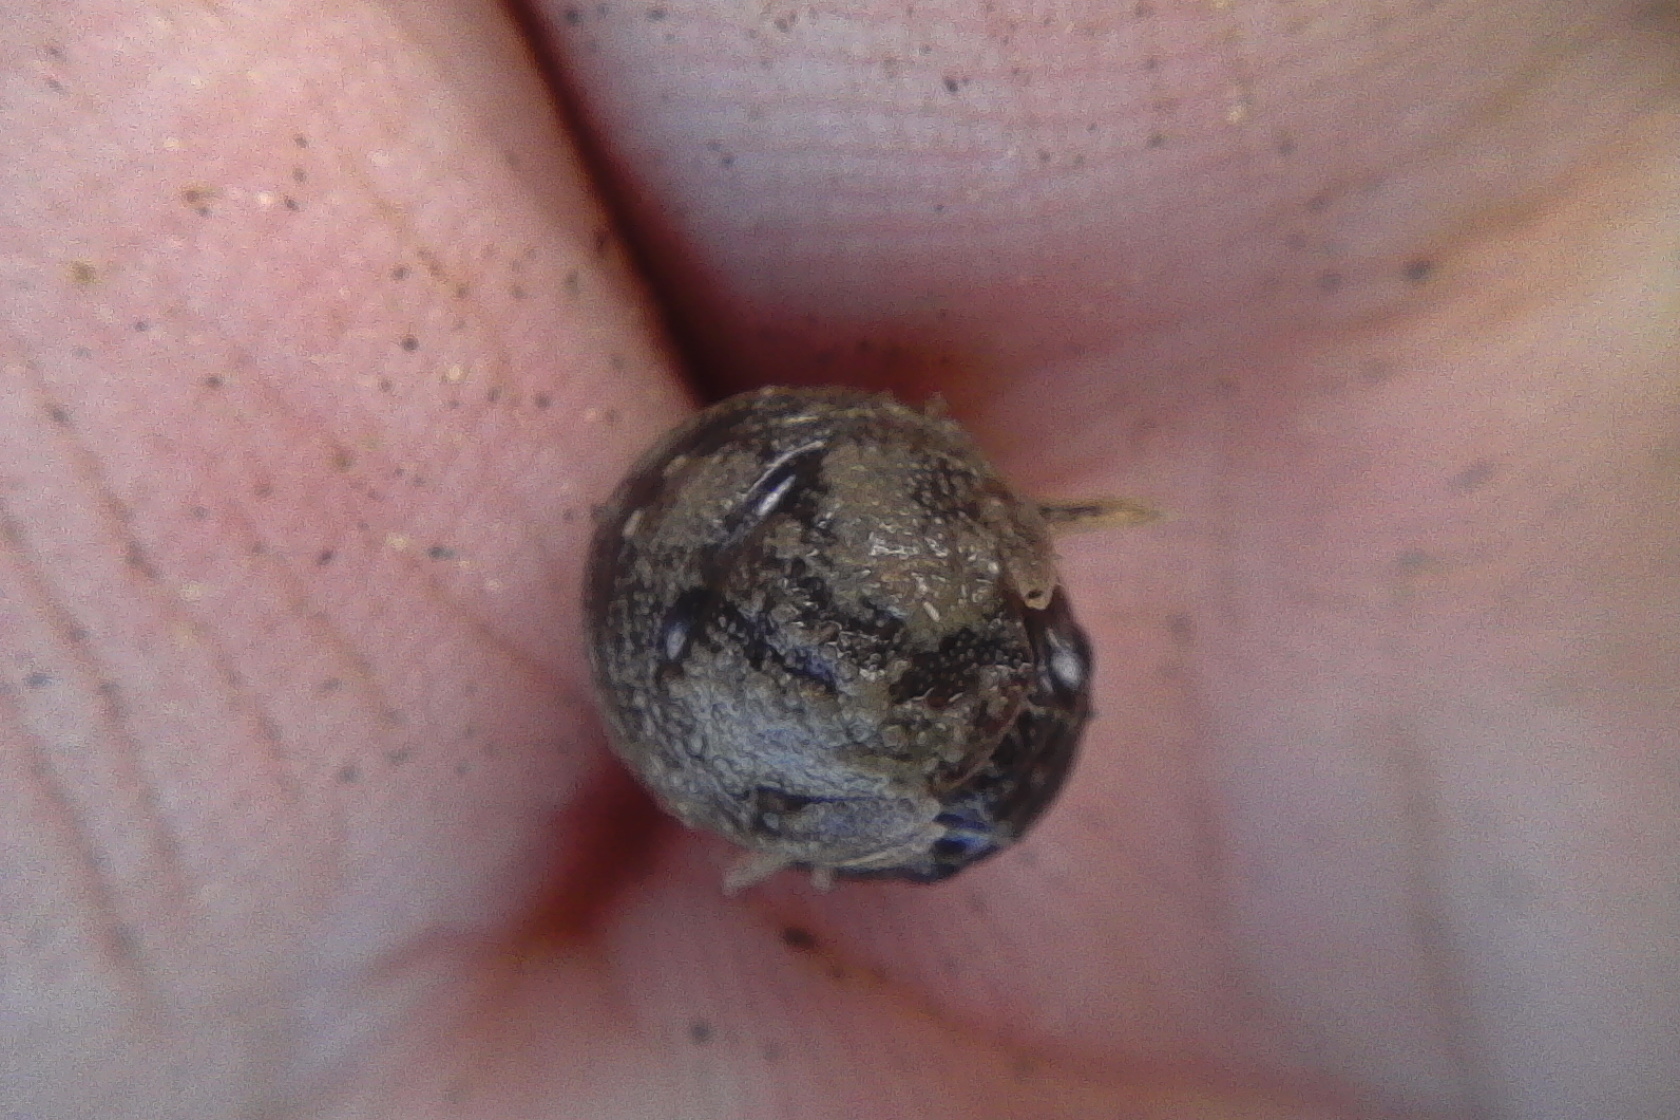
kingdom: Animalia
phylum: Arthropoda
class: Malacostraca
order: Isopoda
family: Sphaeromatidae
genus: Sphaeroma
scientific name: Sphaeroma quoianum
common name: Isopod
